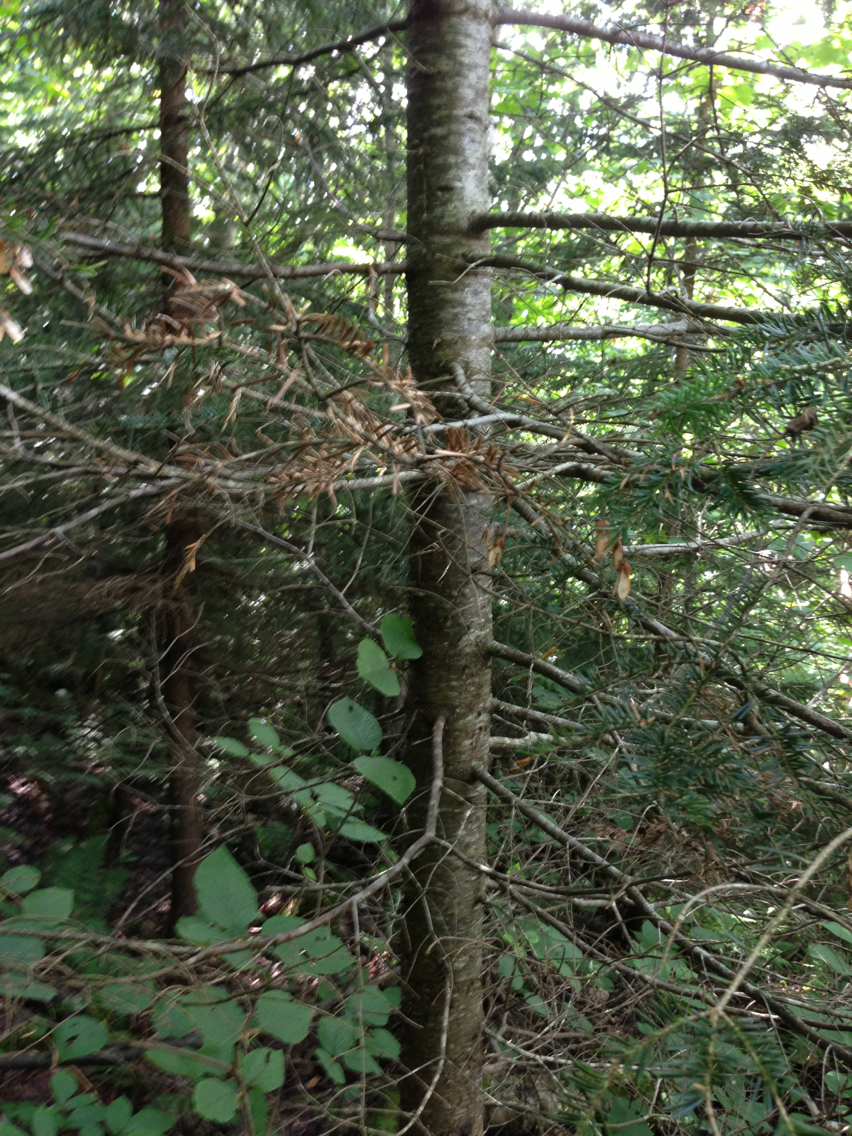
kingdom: Plantae
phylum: Tracheophyta
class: Pinopsida
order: Pinales
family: Pinaceae
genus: Abies
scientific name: Abies balsamea
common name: Balsam fir
